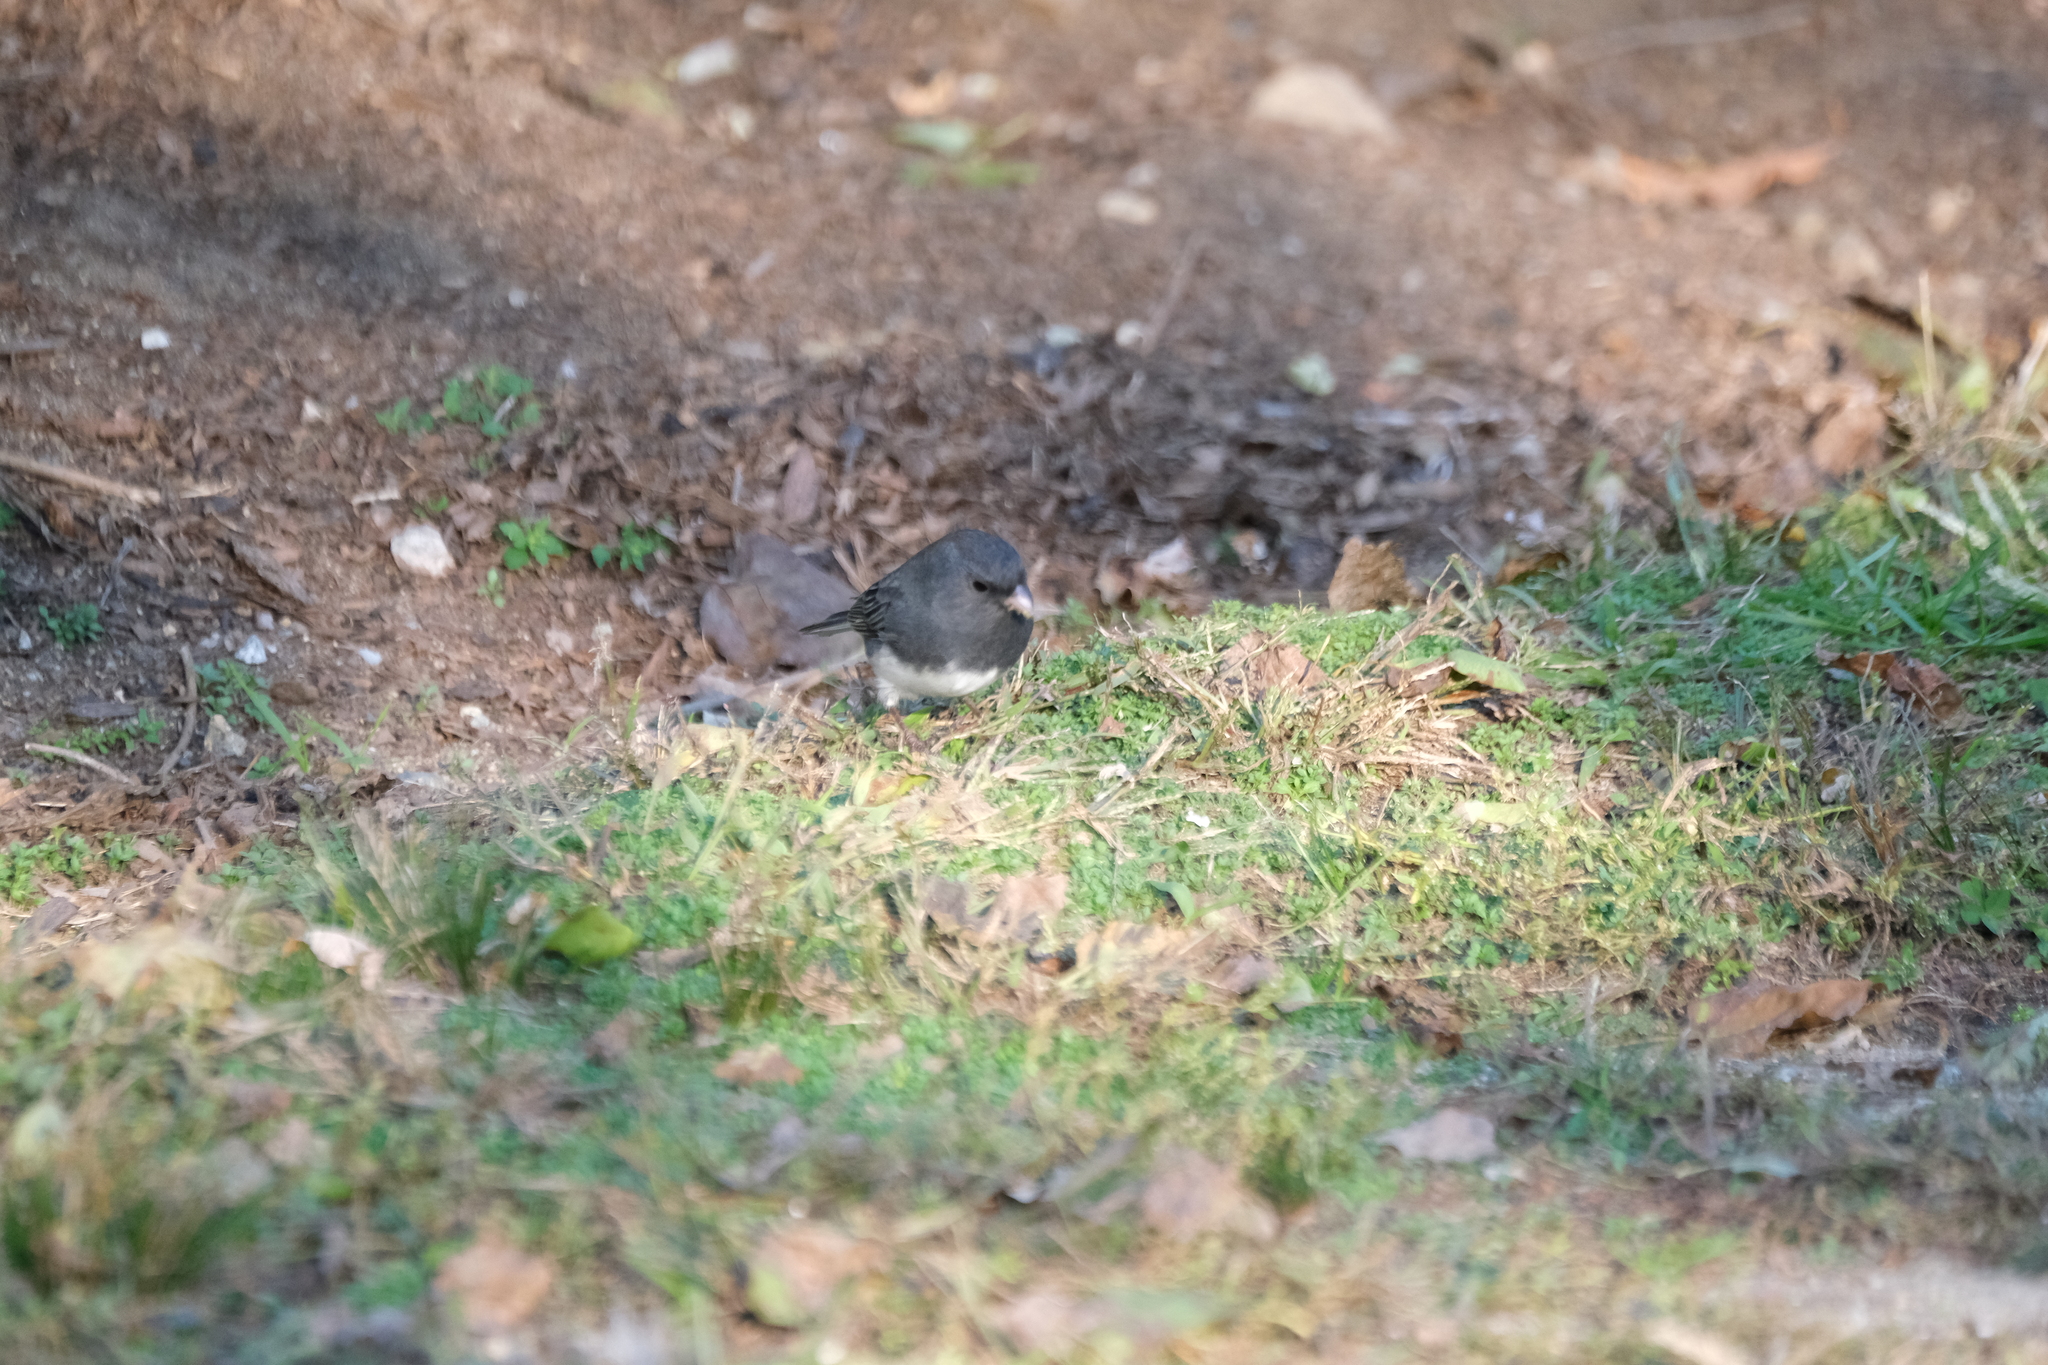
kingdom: Animalia
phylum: Chordata
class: Aves
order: Passeriformes
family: Passerellidae
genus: Junco
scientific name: Junco hyemalis
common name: Dark-eyed junco
